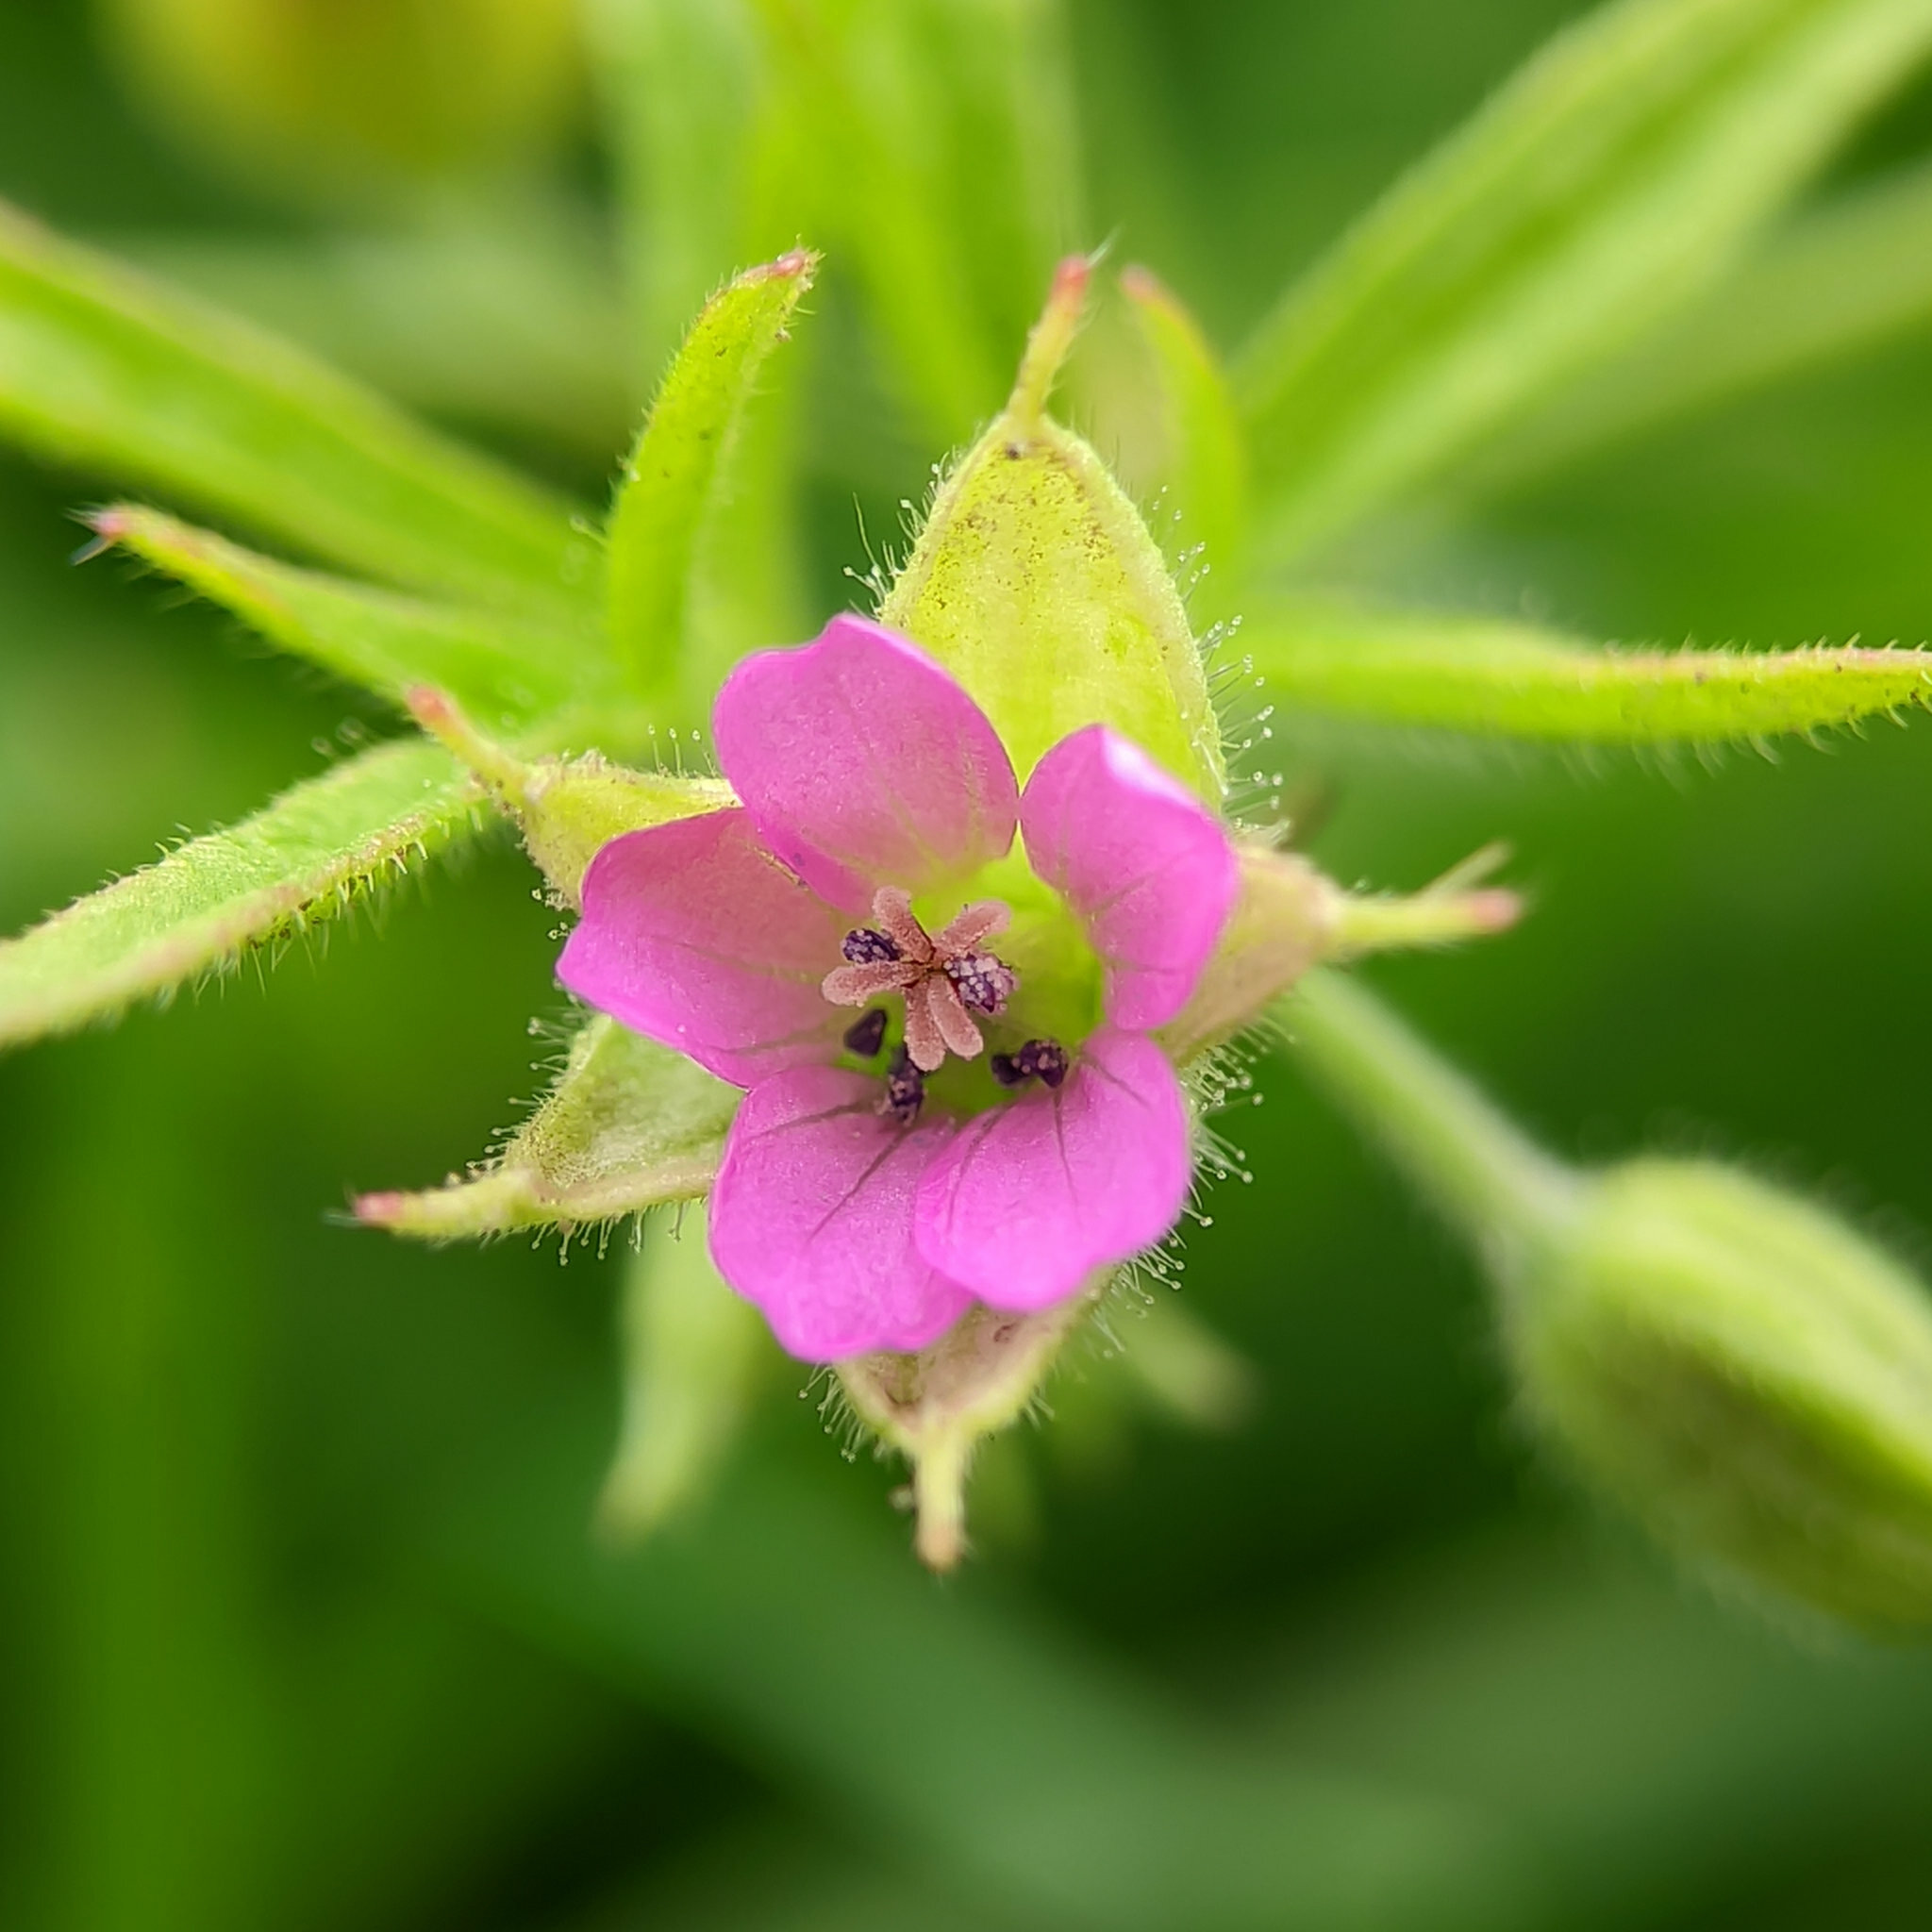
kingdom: Plantae
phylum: Tracheophyta
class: Magnoliopsida
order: Geraniales
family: Geraniaceae
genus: Geranium
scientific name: Geranium dissectum
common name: Cut-leaved crane's-bill
